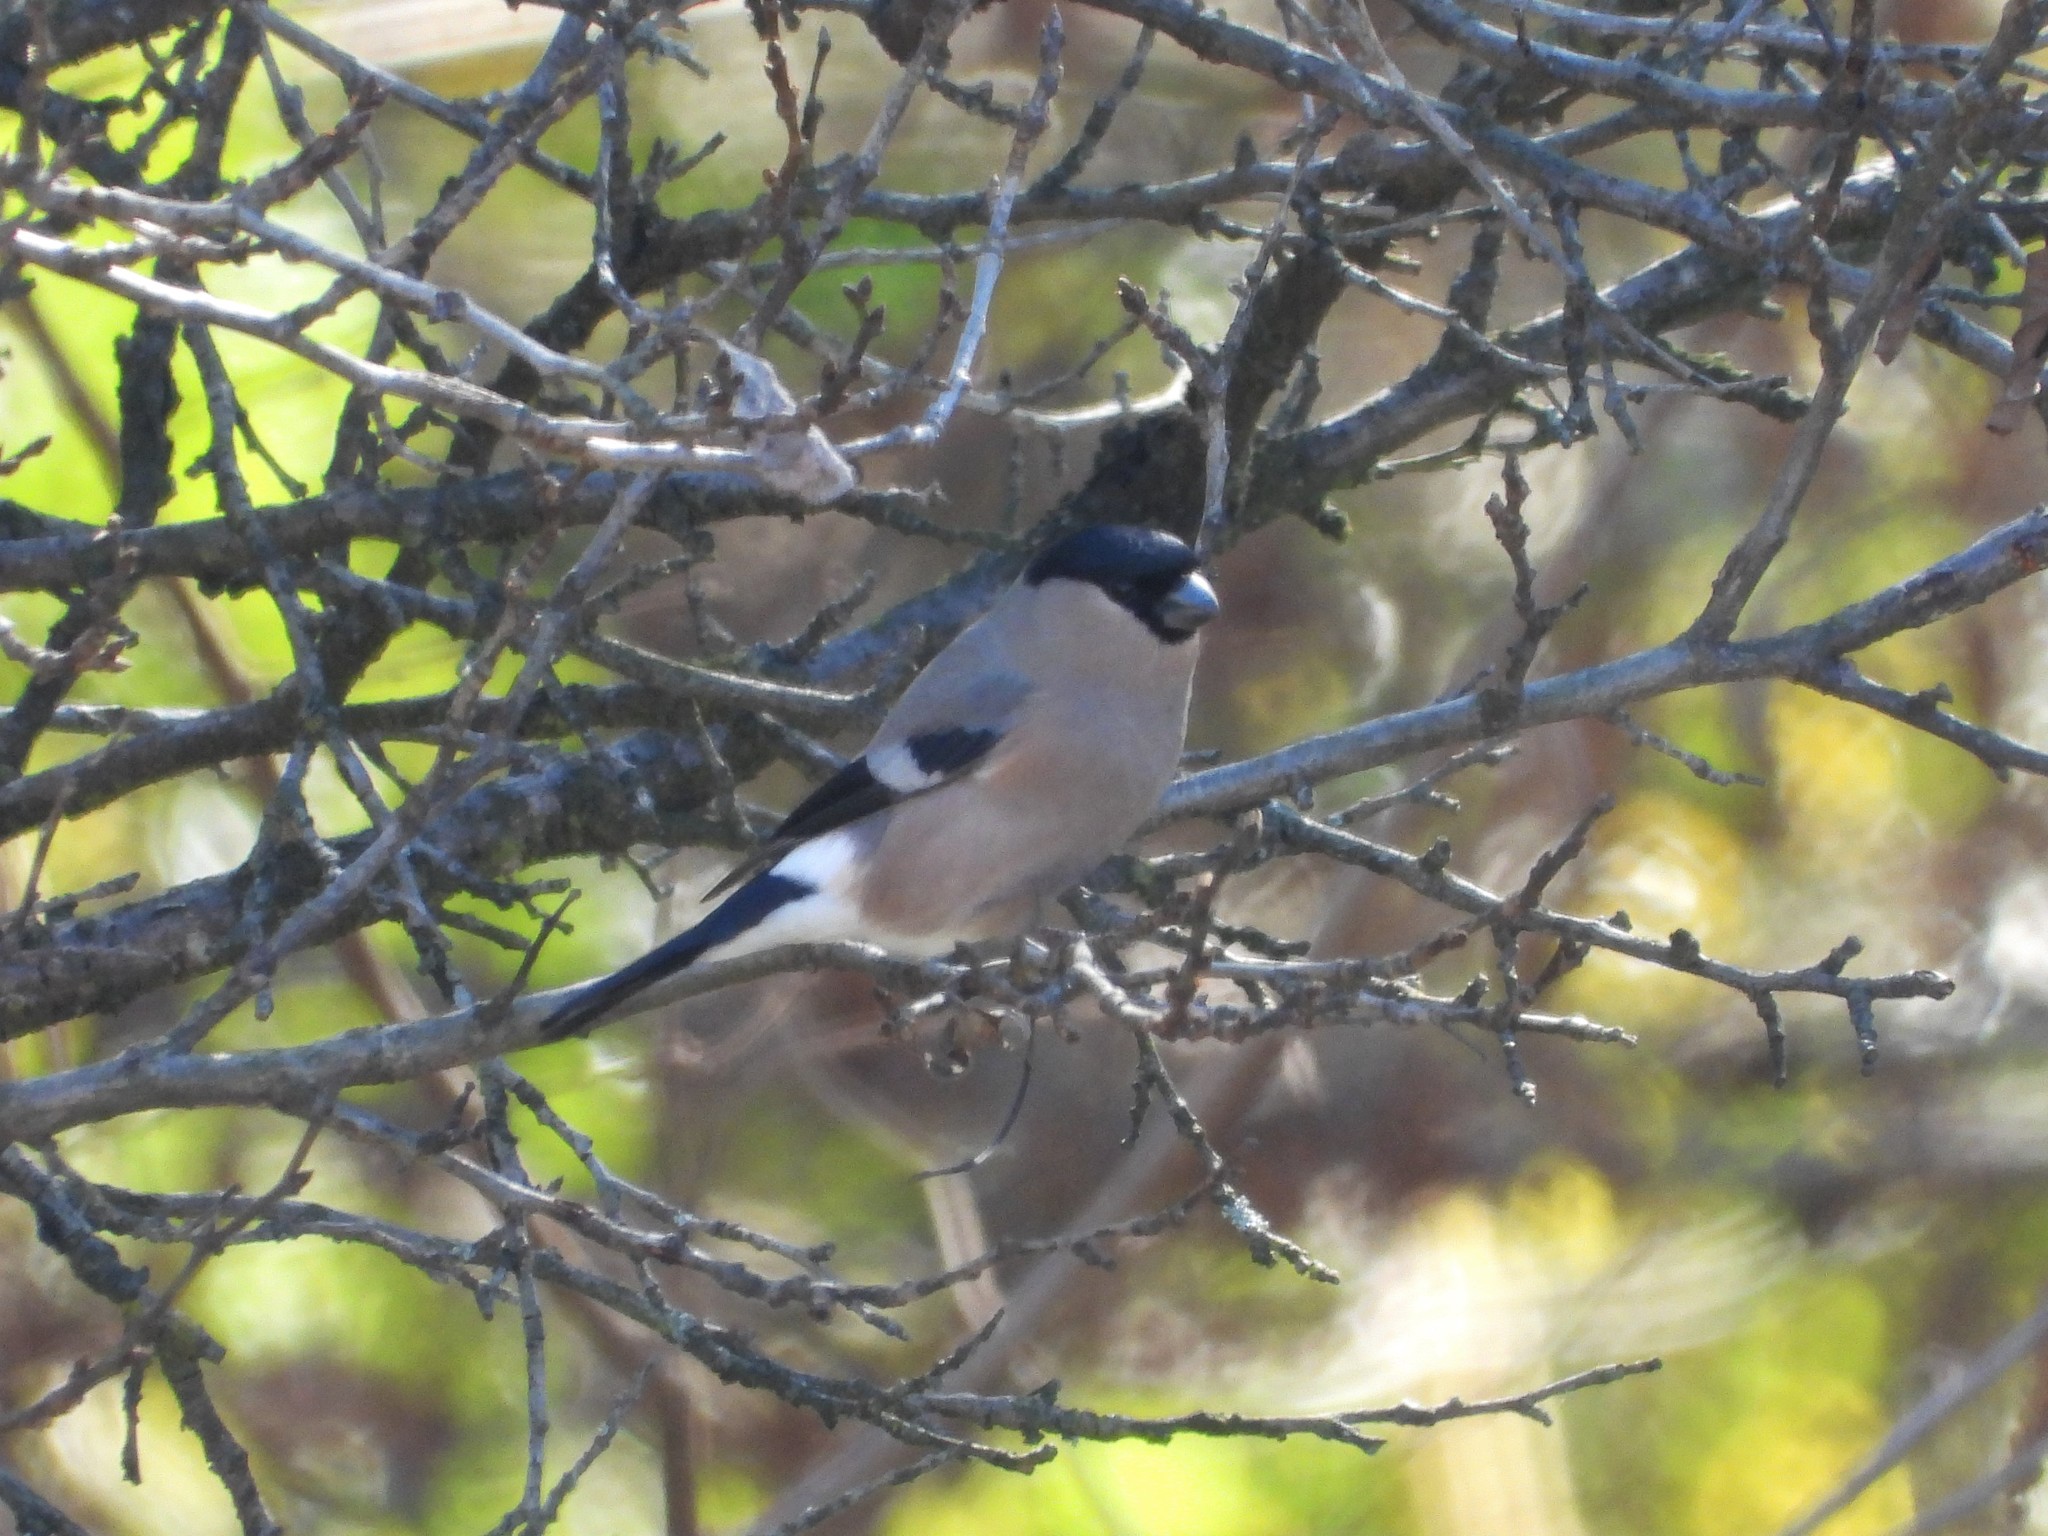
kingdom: Animalia
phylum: Chordata
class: Aves
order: Passeriformes
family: Fringillidae
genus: Pyrrhula
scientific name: Pyrrhula pyrrhula
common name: Eurasian bullfinch
